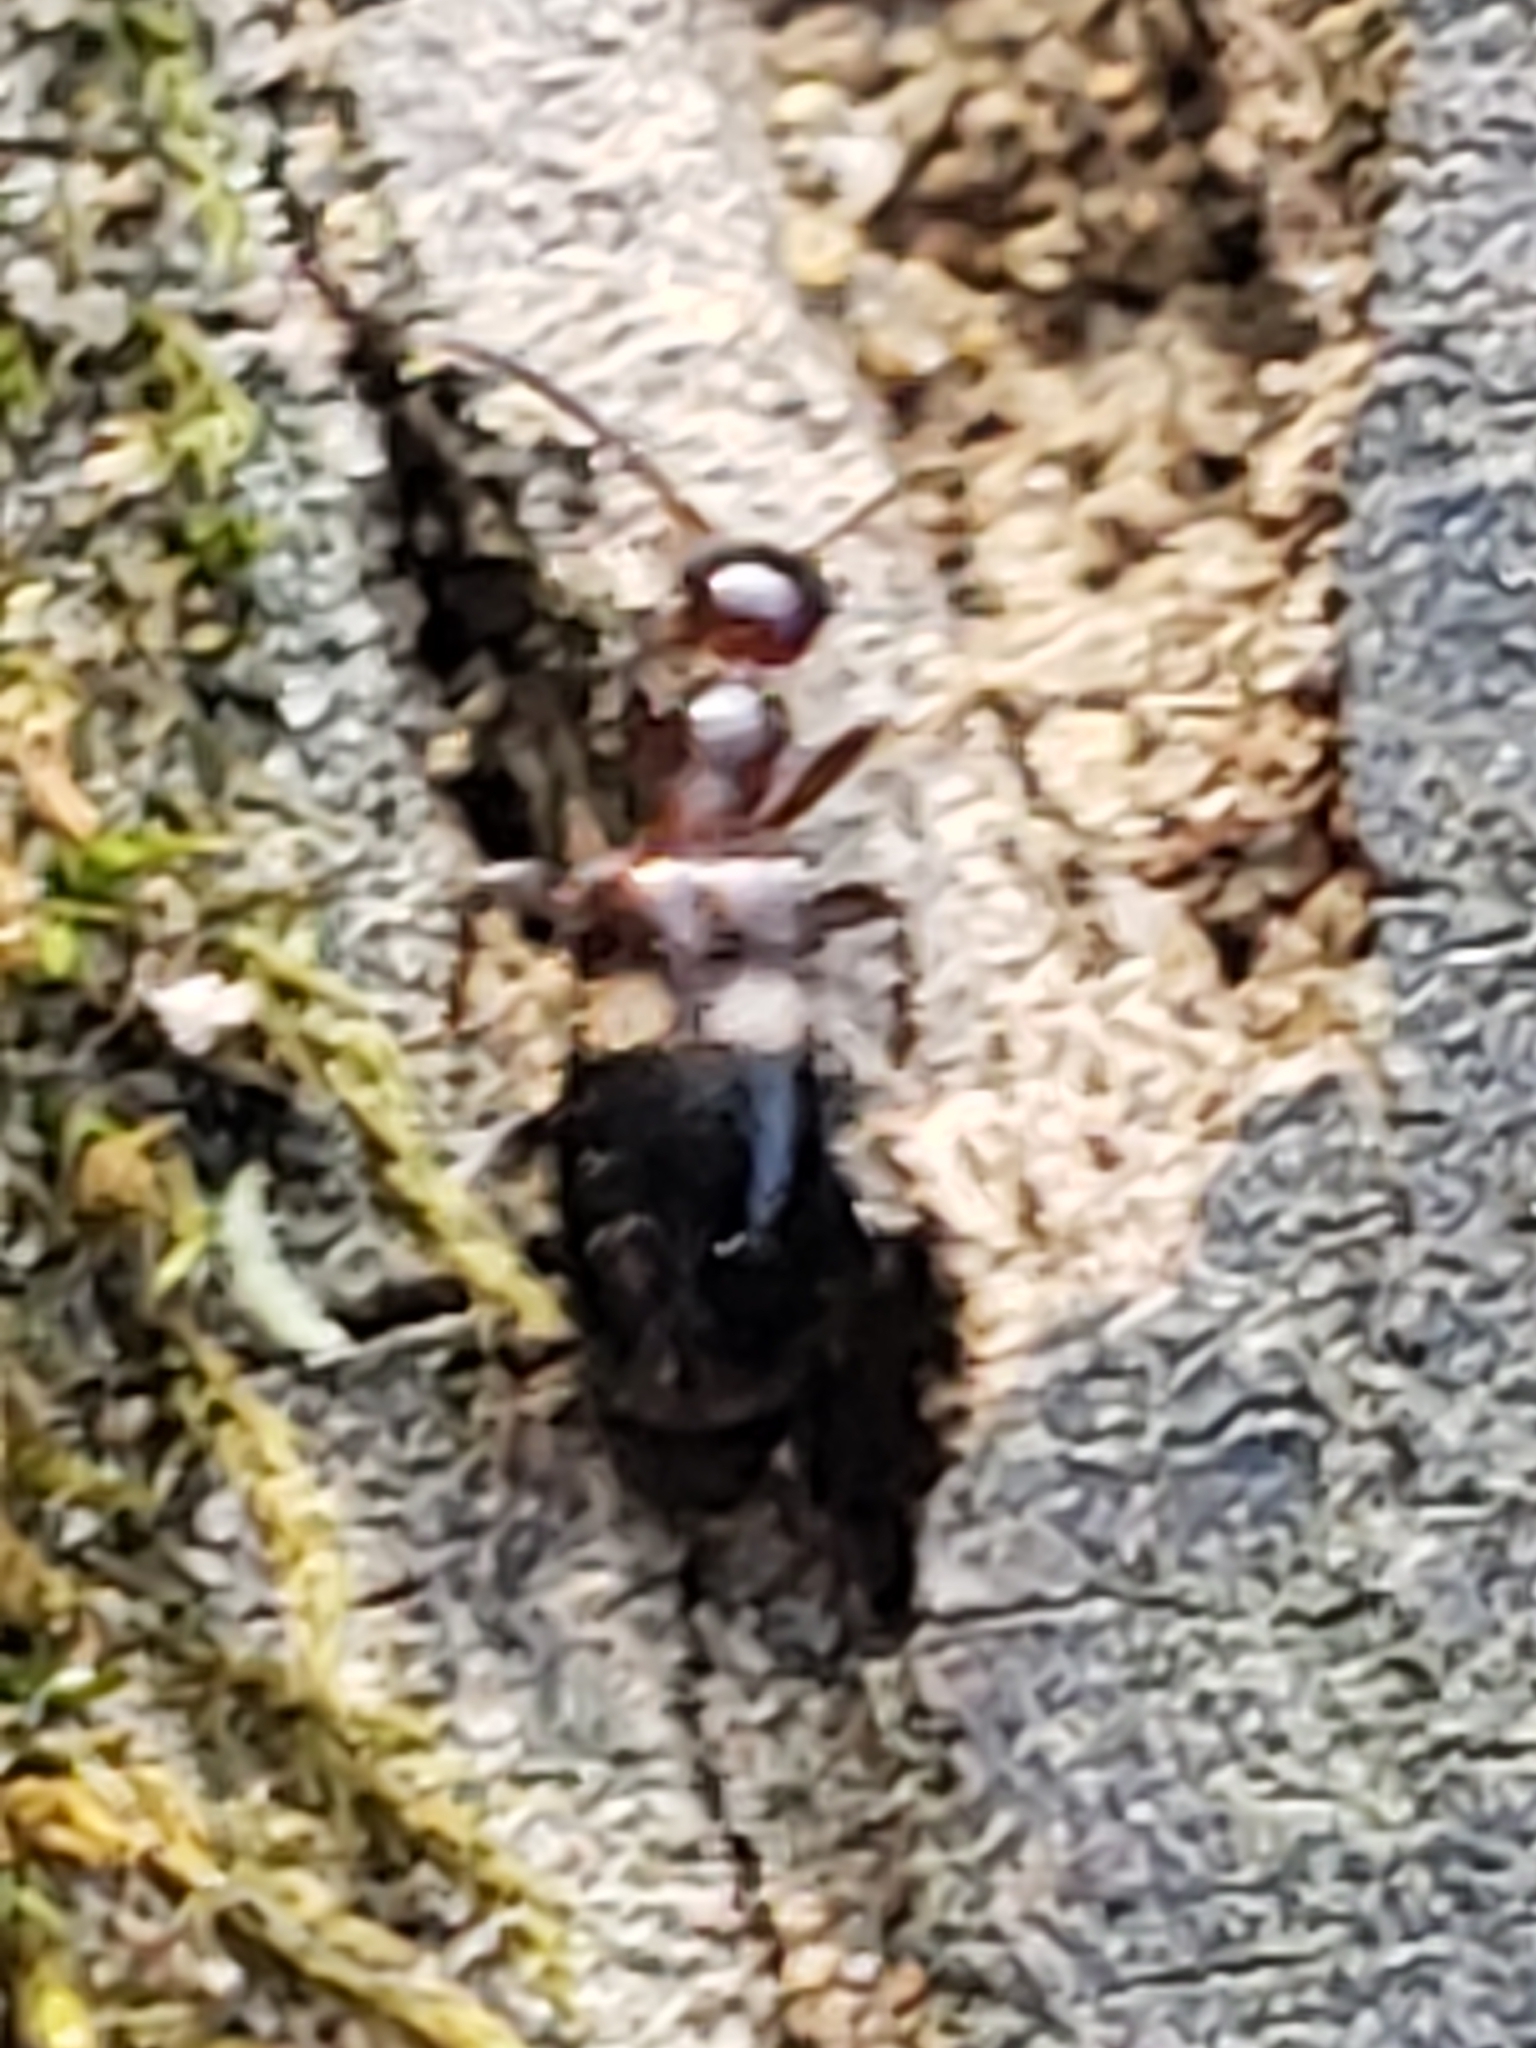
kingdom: Animalia
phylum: Arthropoda
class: Insecta
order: Coleoptera
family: Anthicidae
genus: Malporus
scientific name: Malporus formicarius
